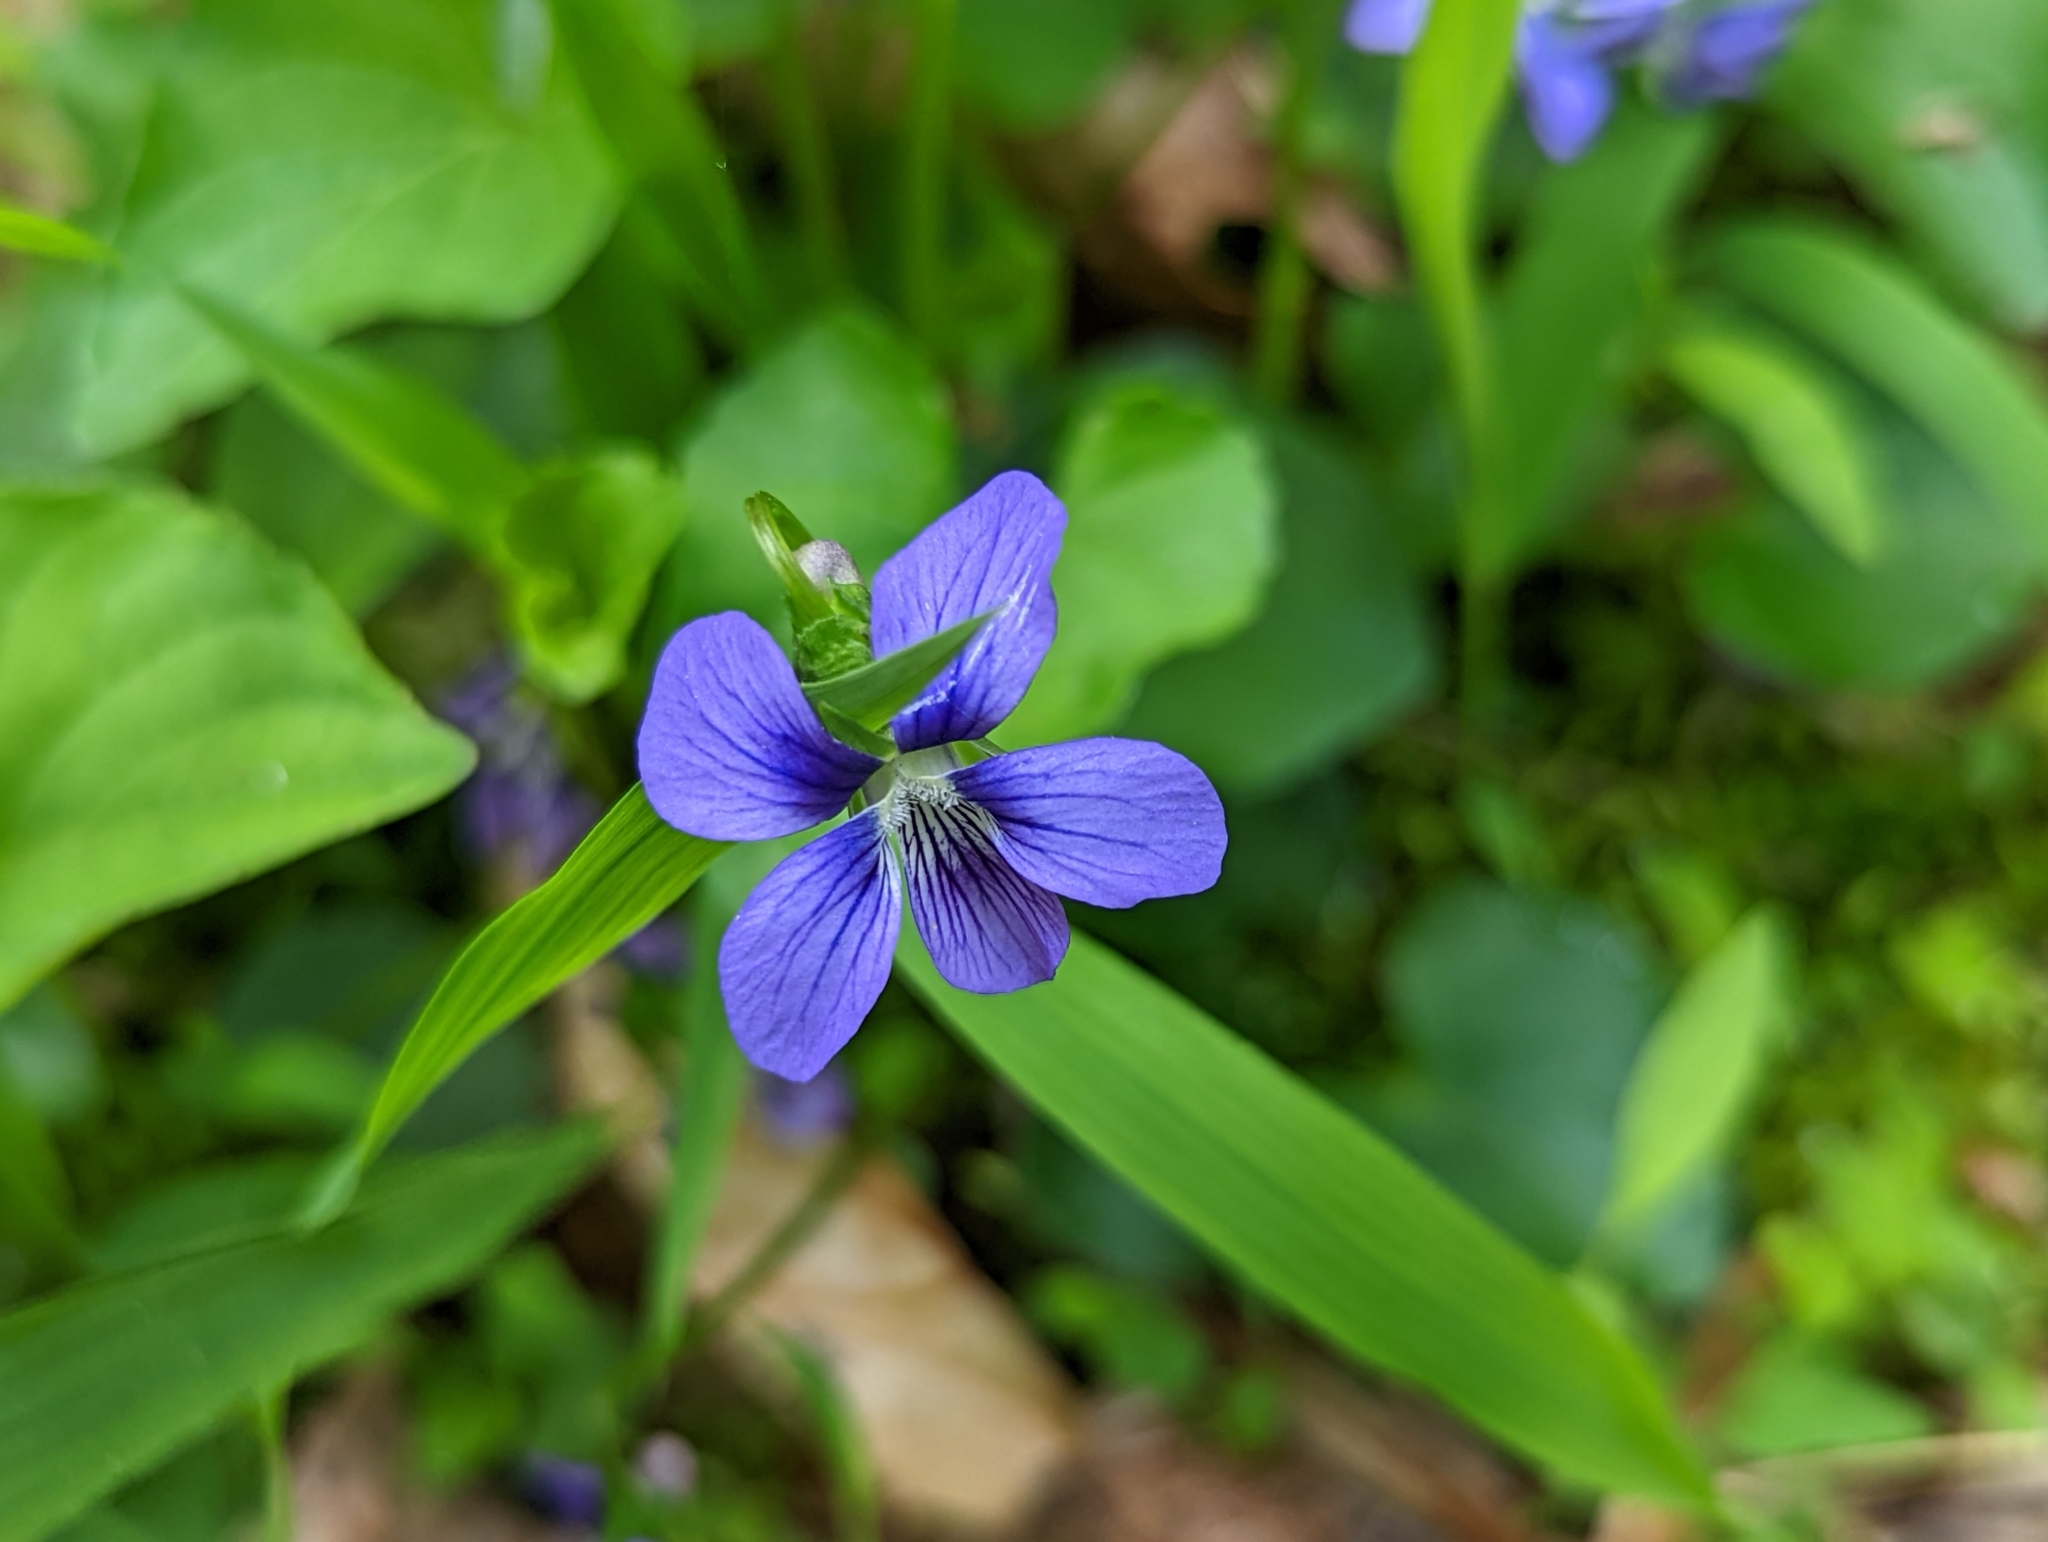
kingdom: Plantae
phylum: Tracheophyta
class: Magnoliopsida
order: Malpighiales
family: Violaceae
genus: Viola
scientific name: Viola cucullata
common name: Marsh blue violet
